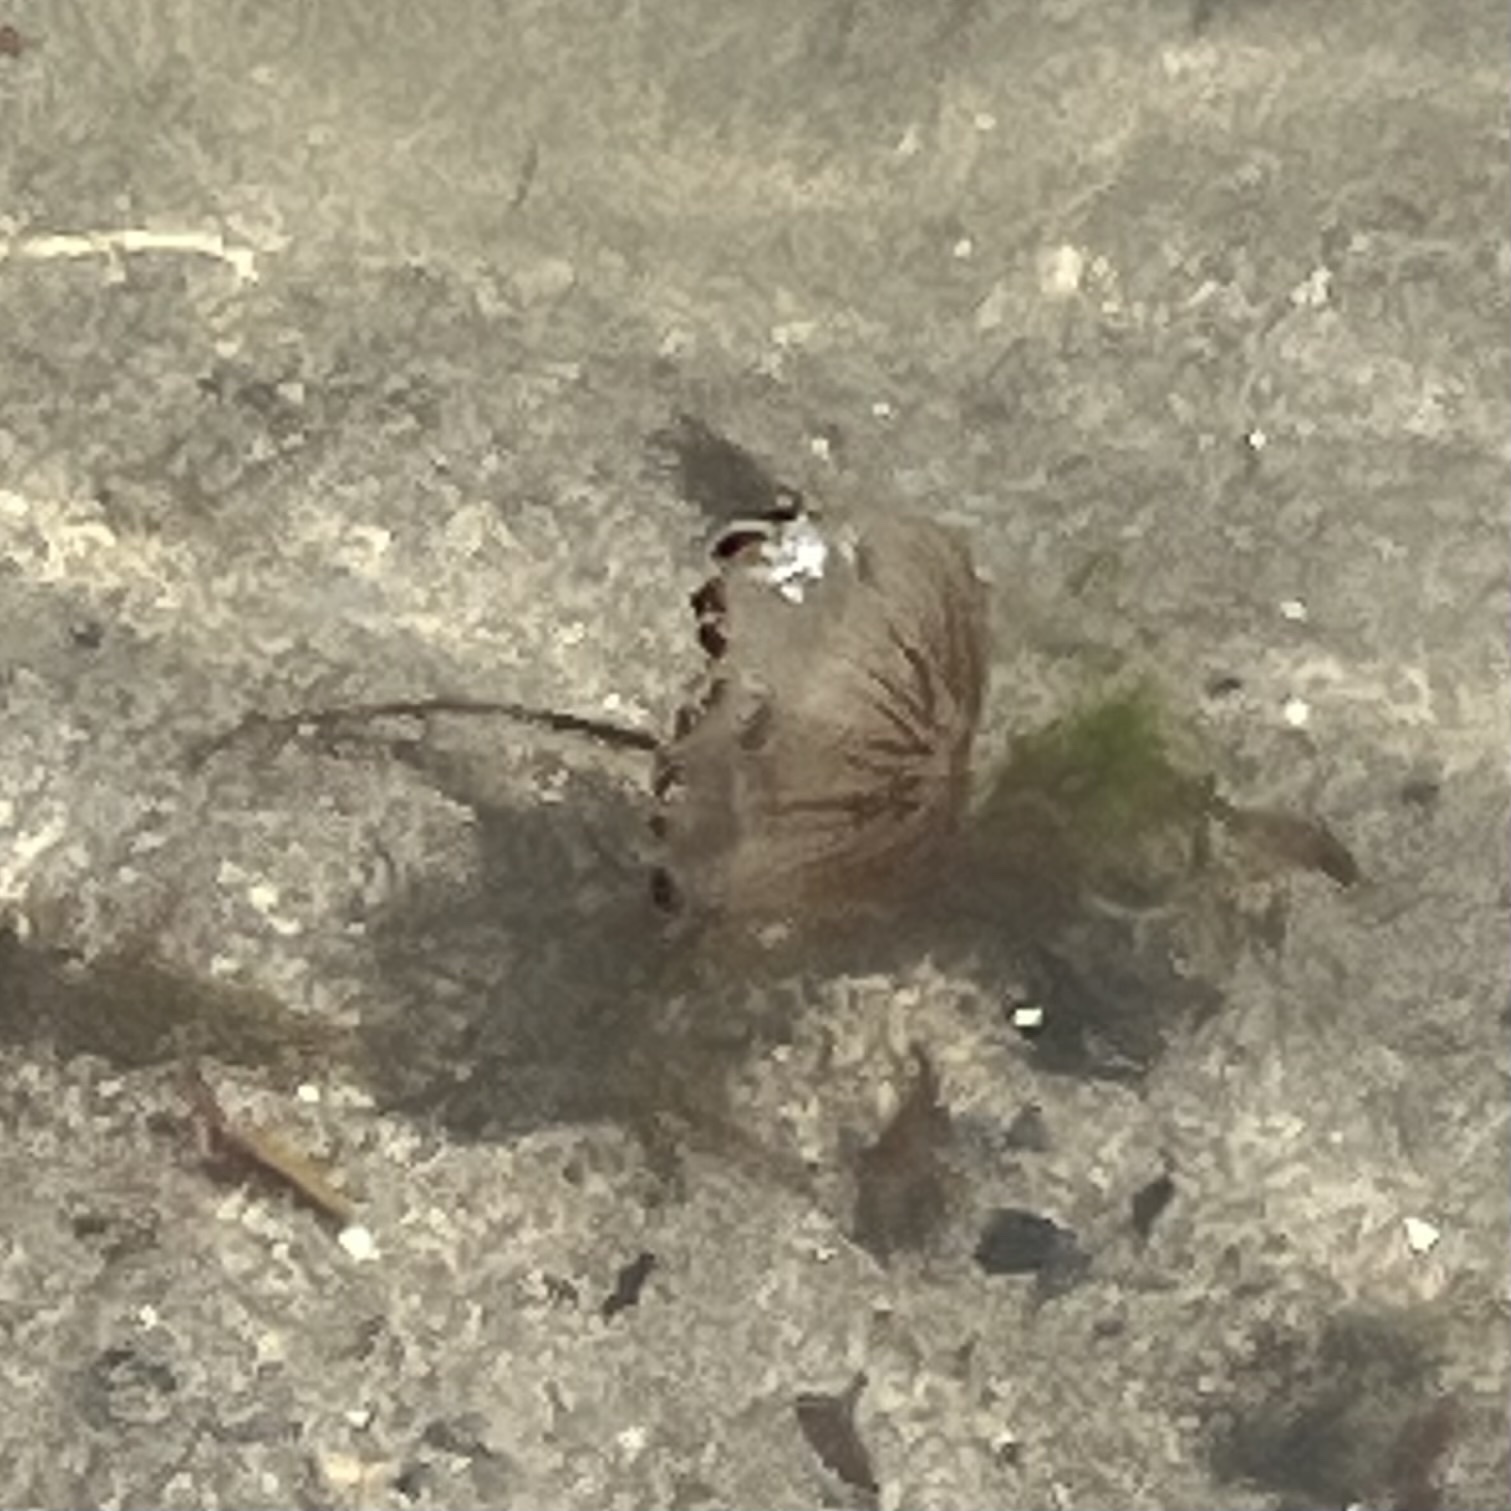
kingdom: Animalia
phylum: Cnidaria
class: Scyphozoa
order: Semaeostomeae
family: Pelagiidae
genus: Chrysaora
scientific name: Chrysaora hysoscella
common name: Compass jellyfish
